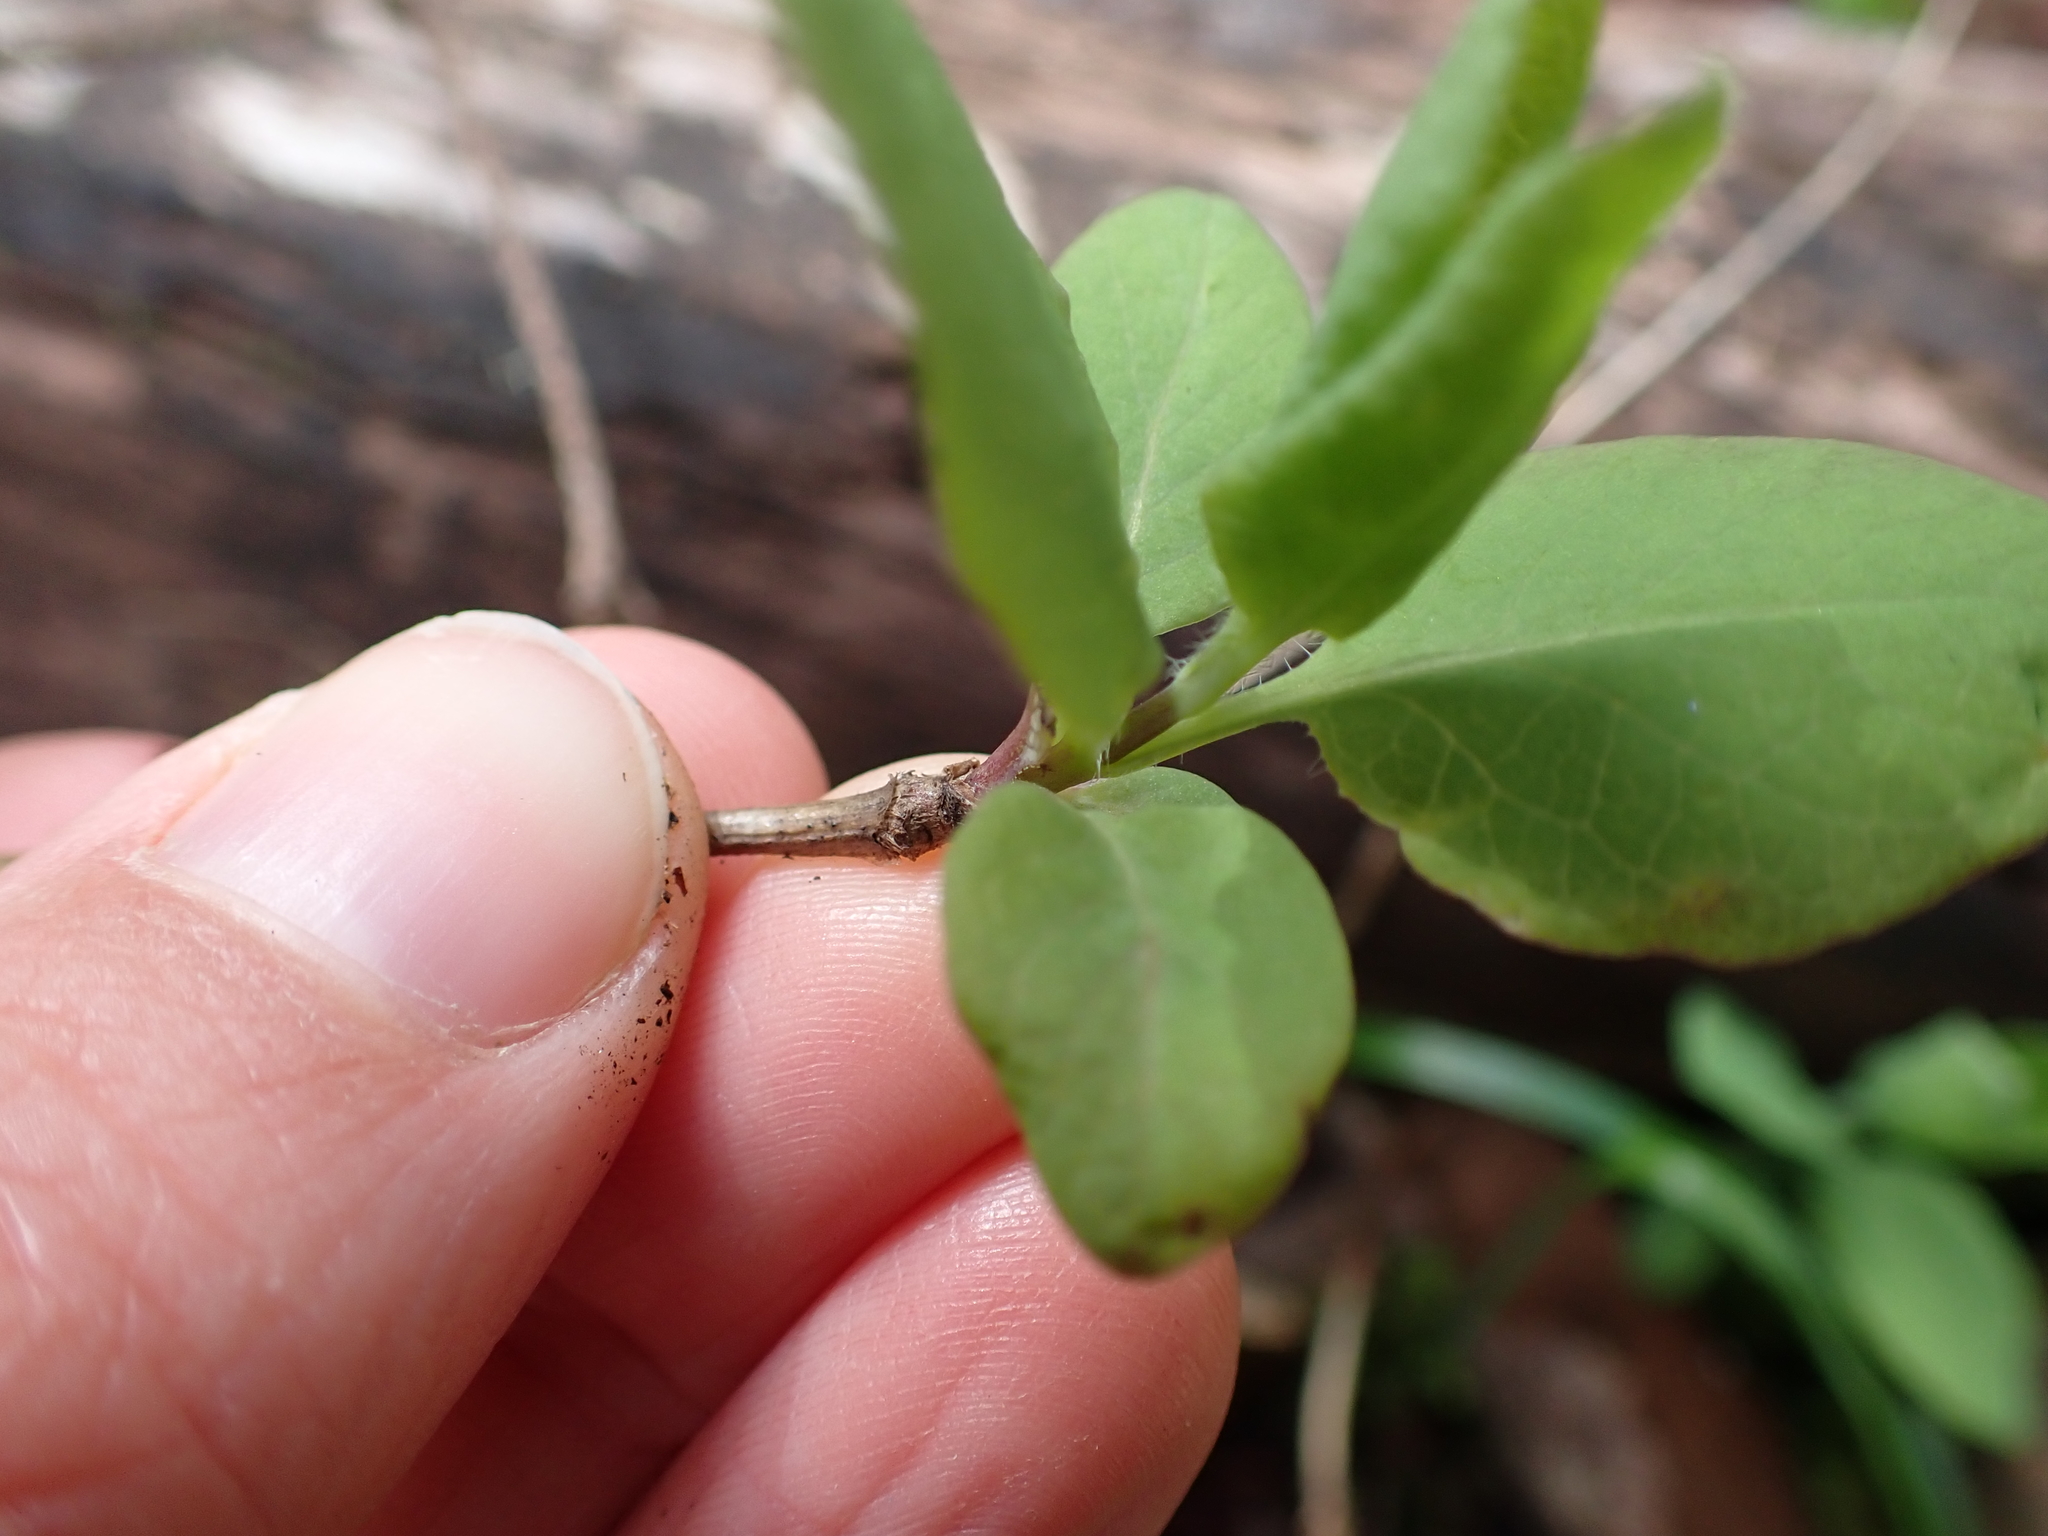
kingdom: Plantae
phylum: Tracheophyta
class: Magnoliopsida
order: Dipsacales
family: Caprifoliaceae
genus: Lonicera
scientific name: Lonicera ciliosa
